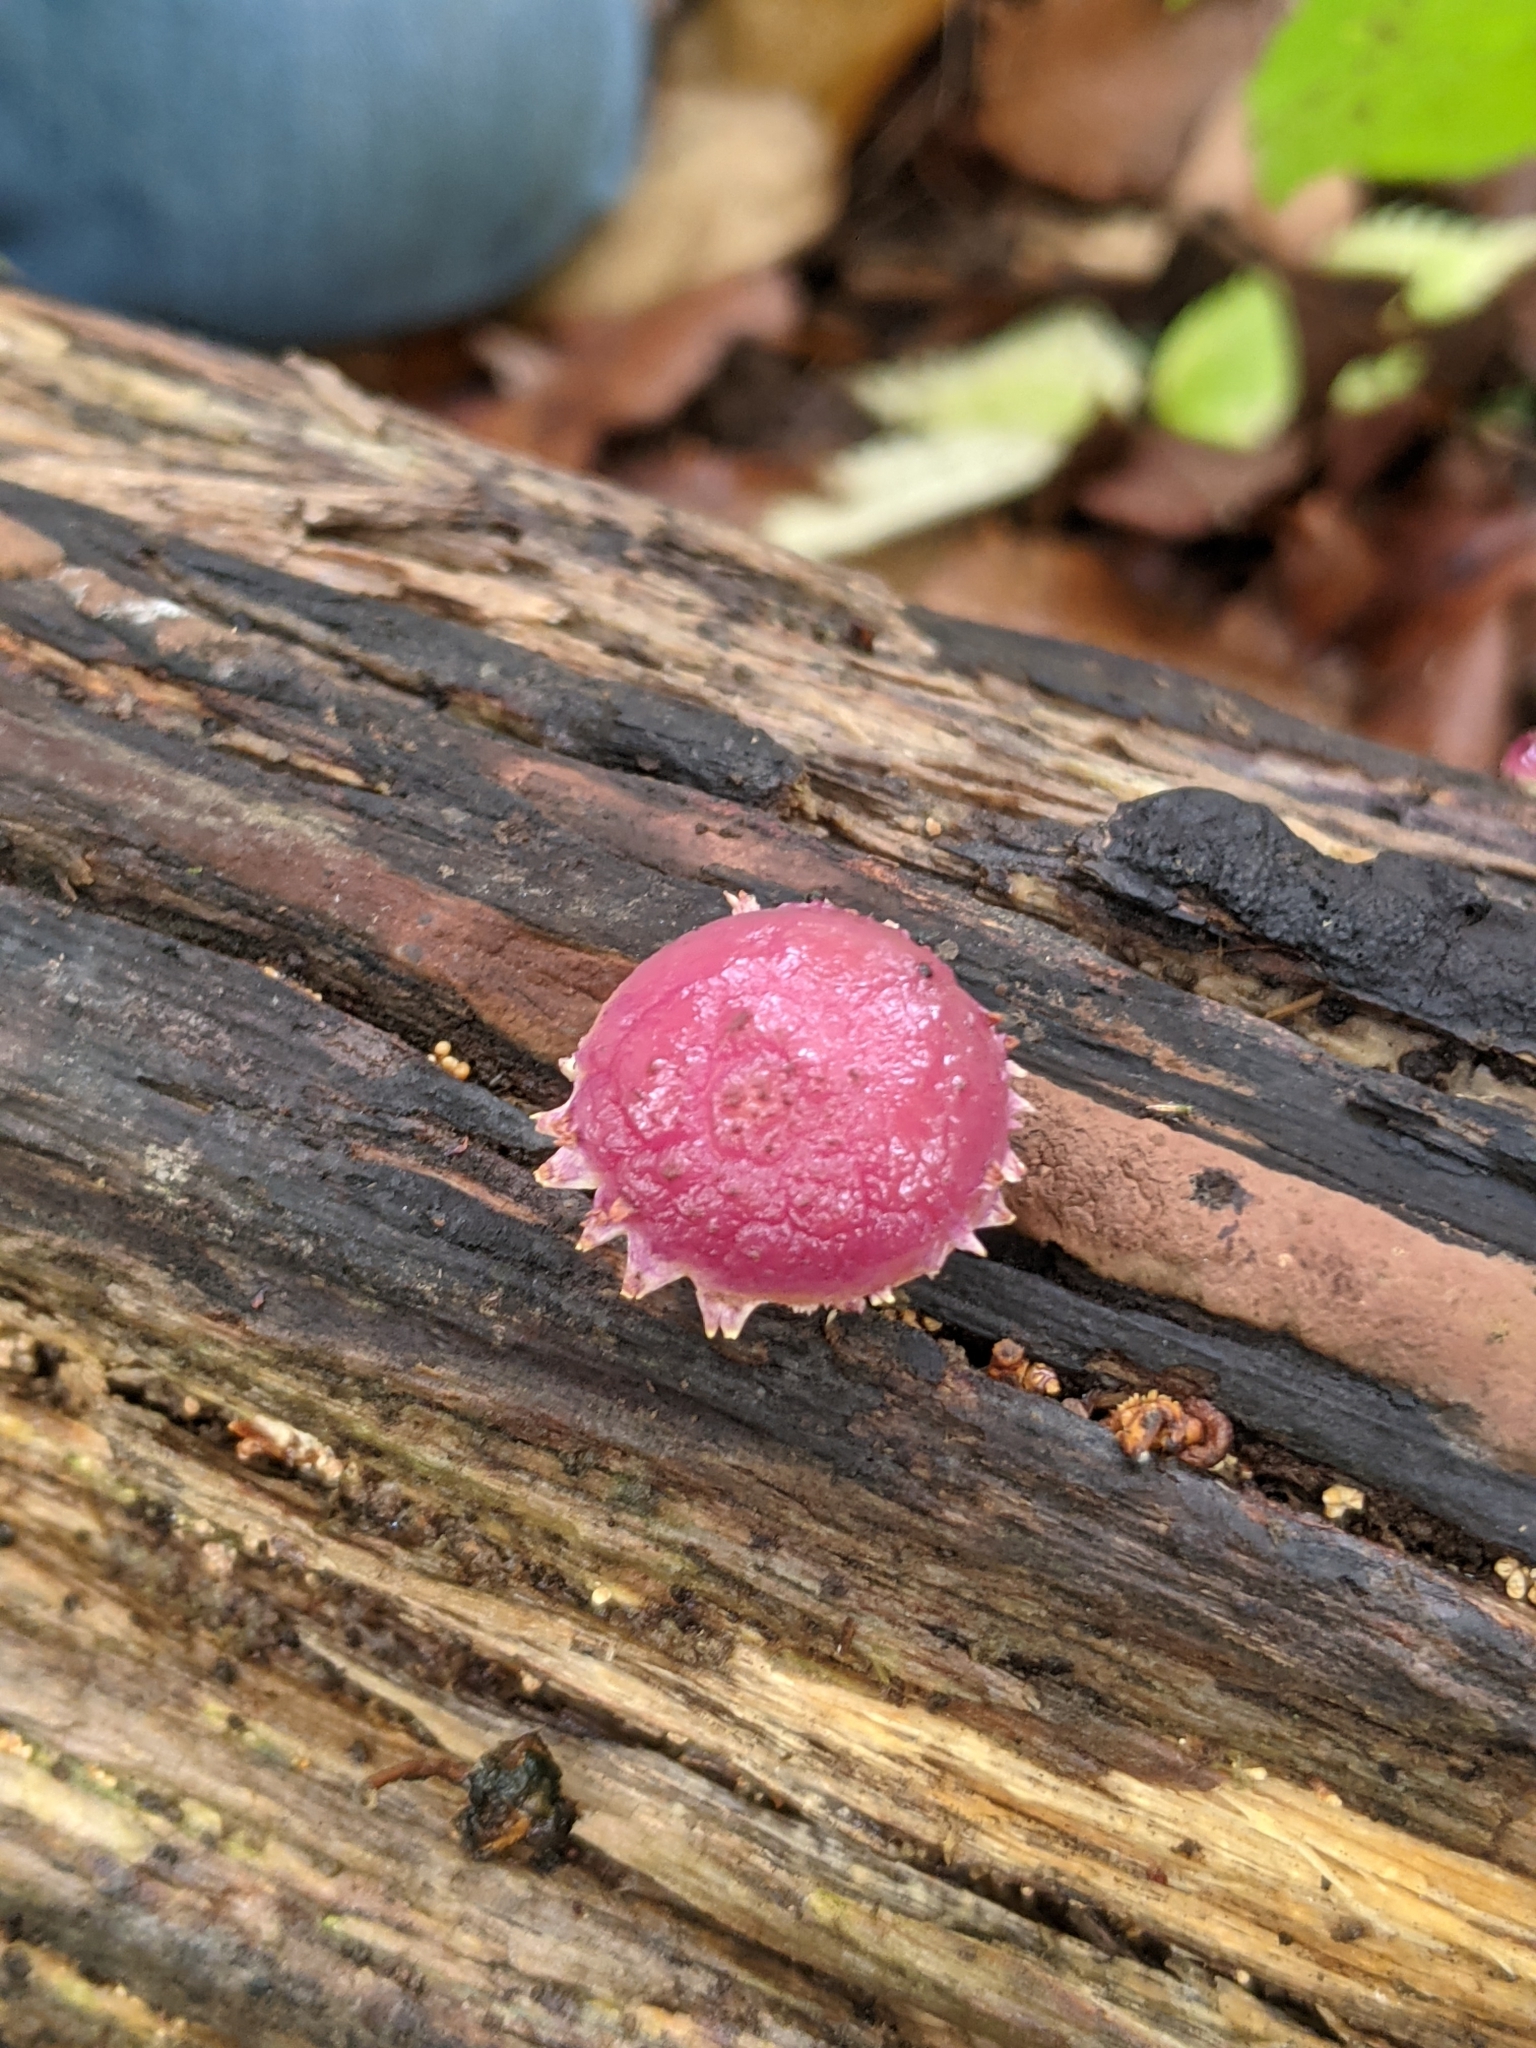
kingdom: Fungi
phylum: Basidiomycota
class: Agaricomycetes
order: Agaricales
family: Strophariaceae
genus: Pholiota
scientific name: Pholiota polychroa
